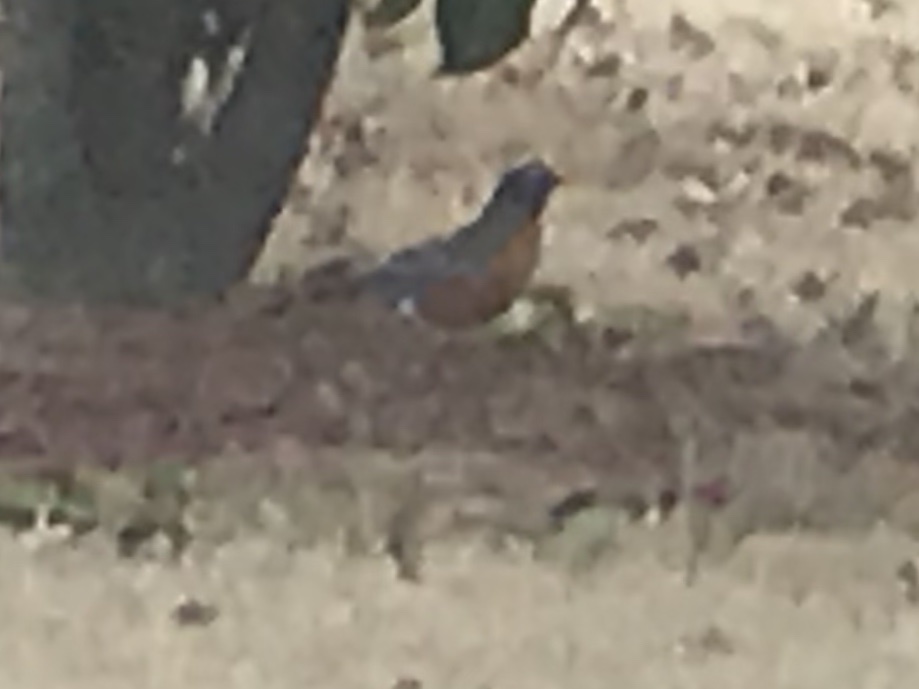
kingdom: Animalia
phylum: Chordata
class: Aves
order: Passeriformes
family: Turdidae
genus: Turdus
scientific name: Turdus migratorius
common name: American robin
